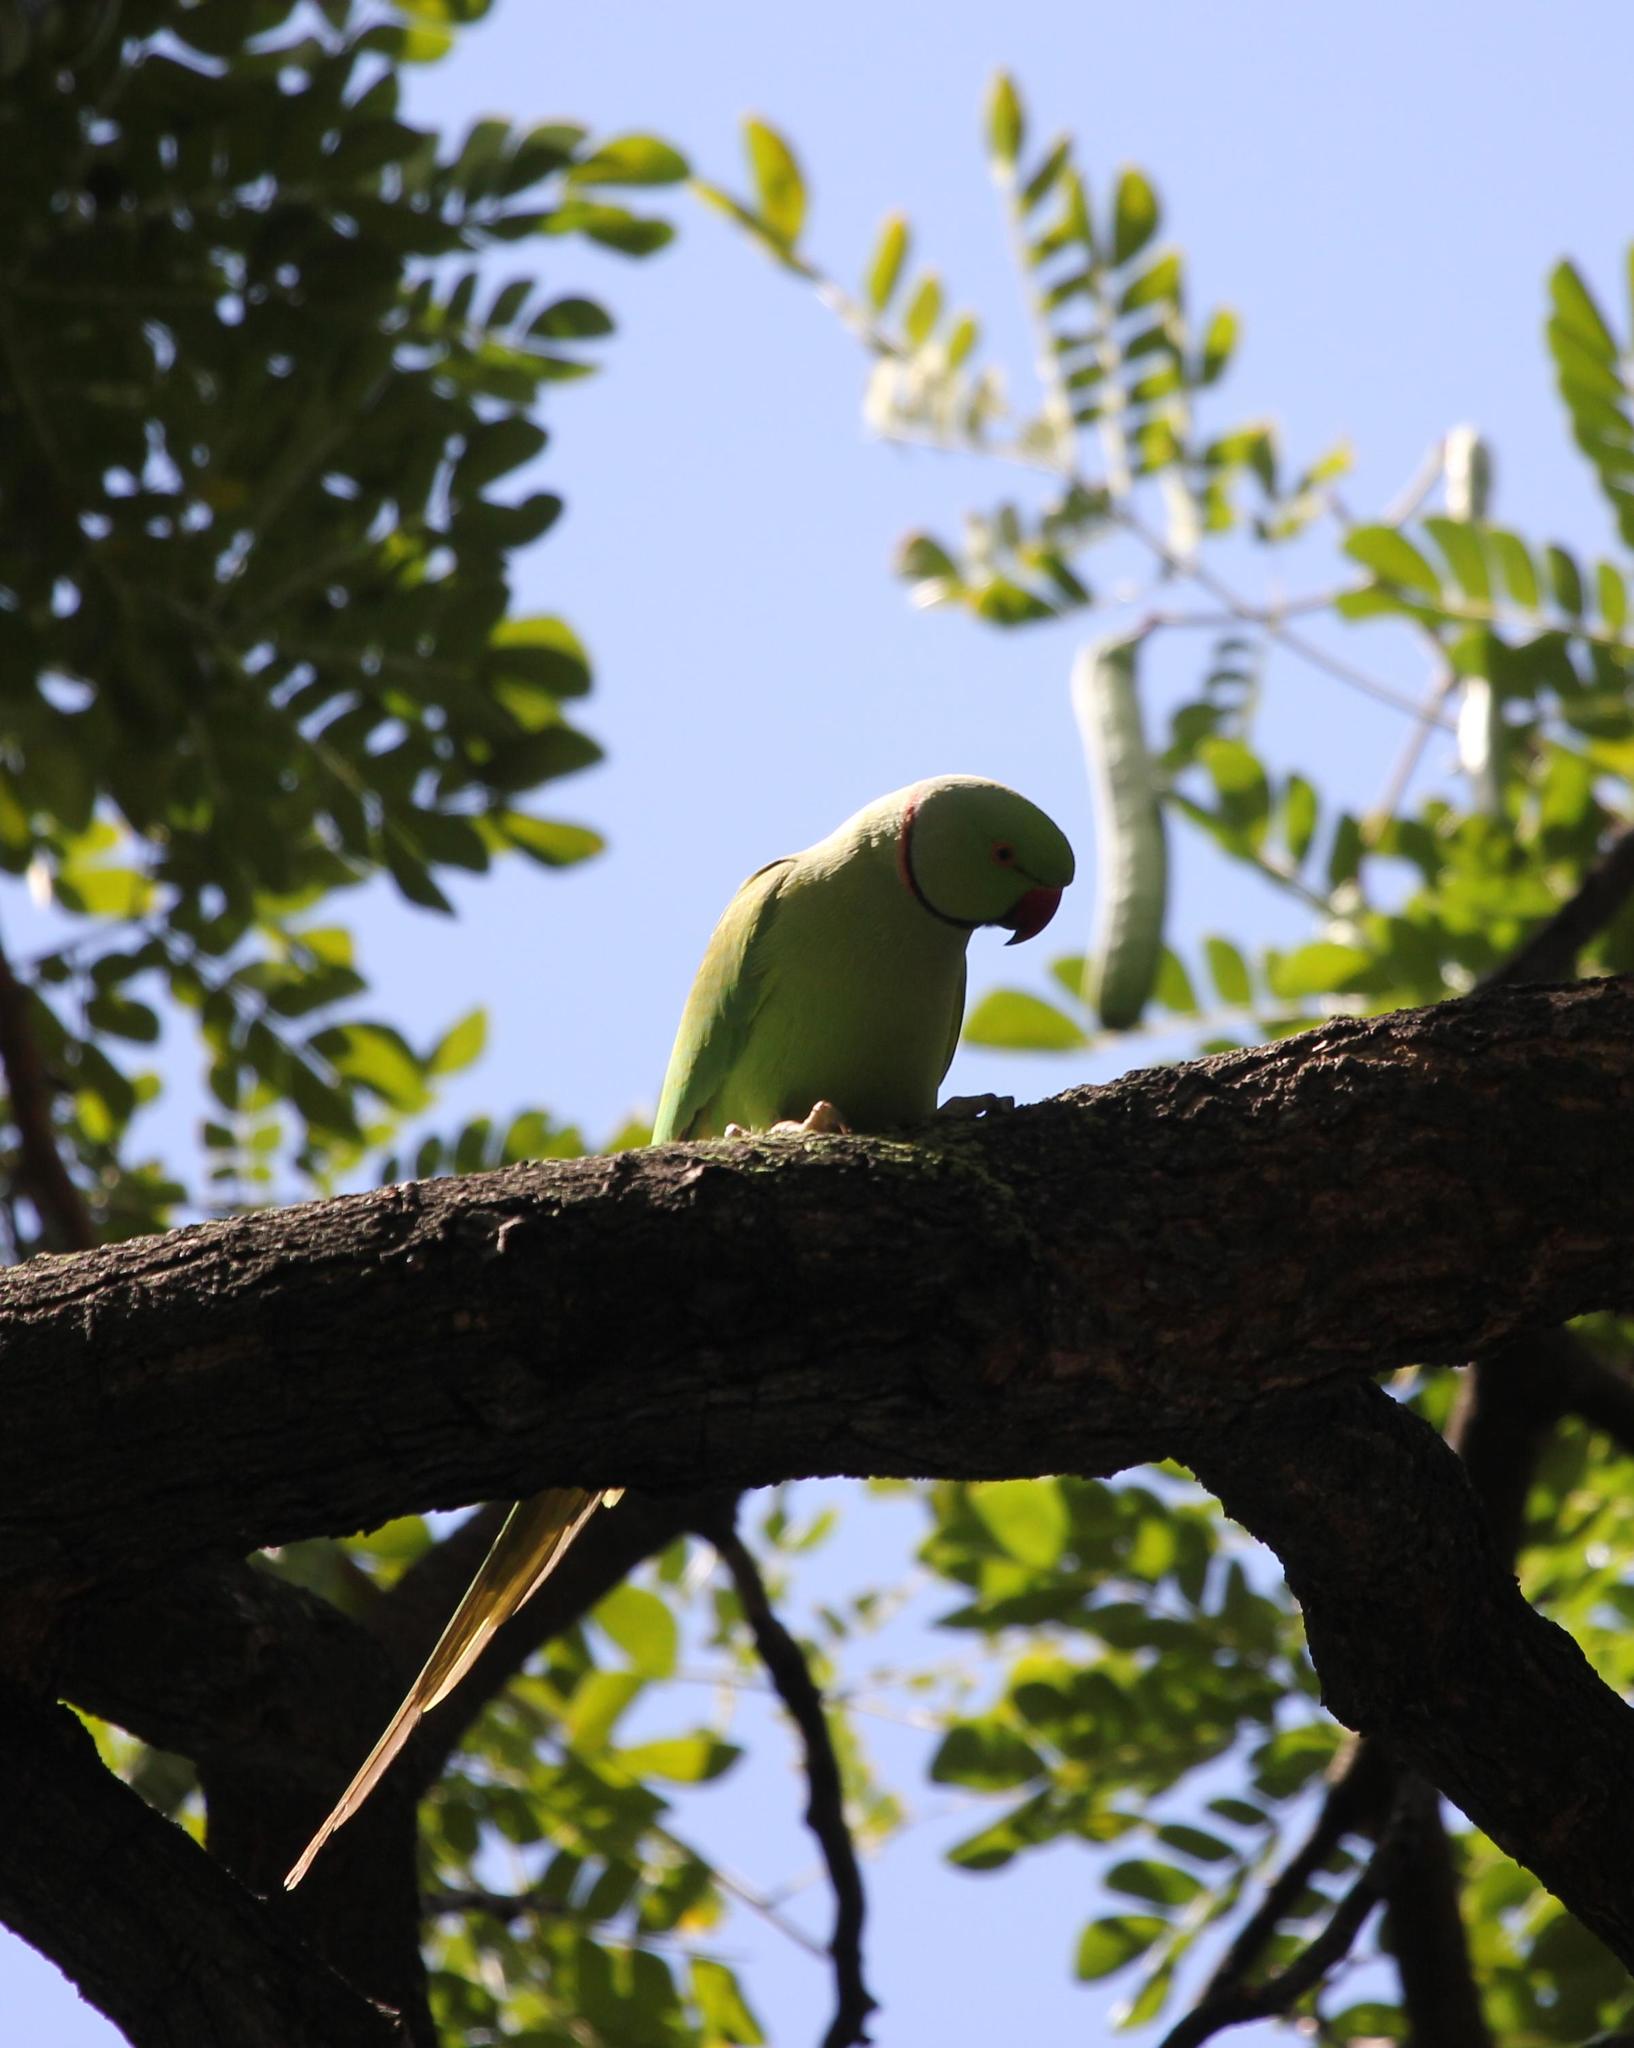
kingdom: Animalia
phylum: Chordata
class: Aves
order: Psittaciformes
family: Psittacidae
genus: Psittacula
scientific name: Psittacula krameri
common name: Rose-ringed parakeet
